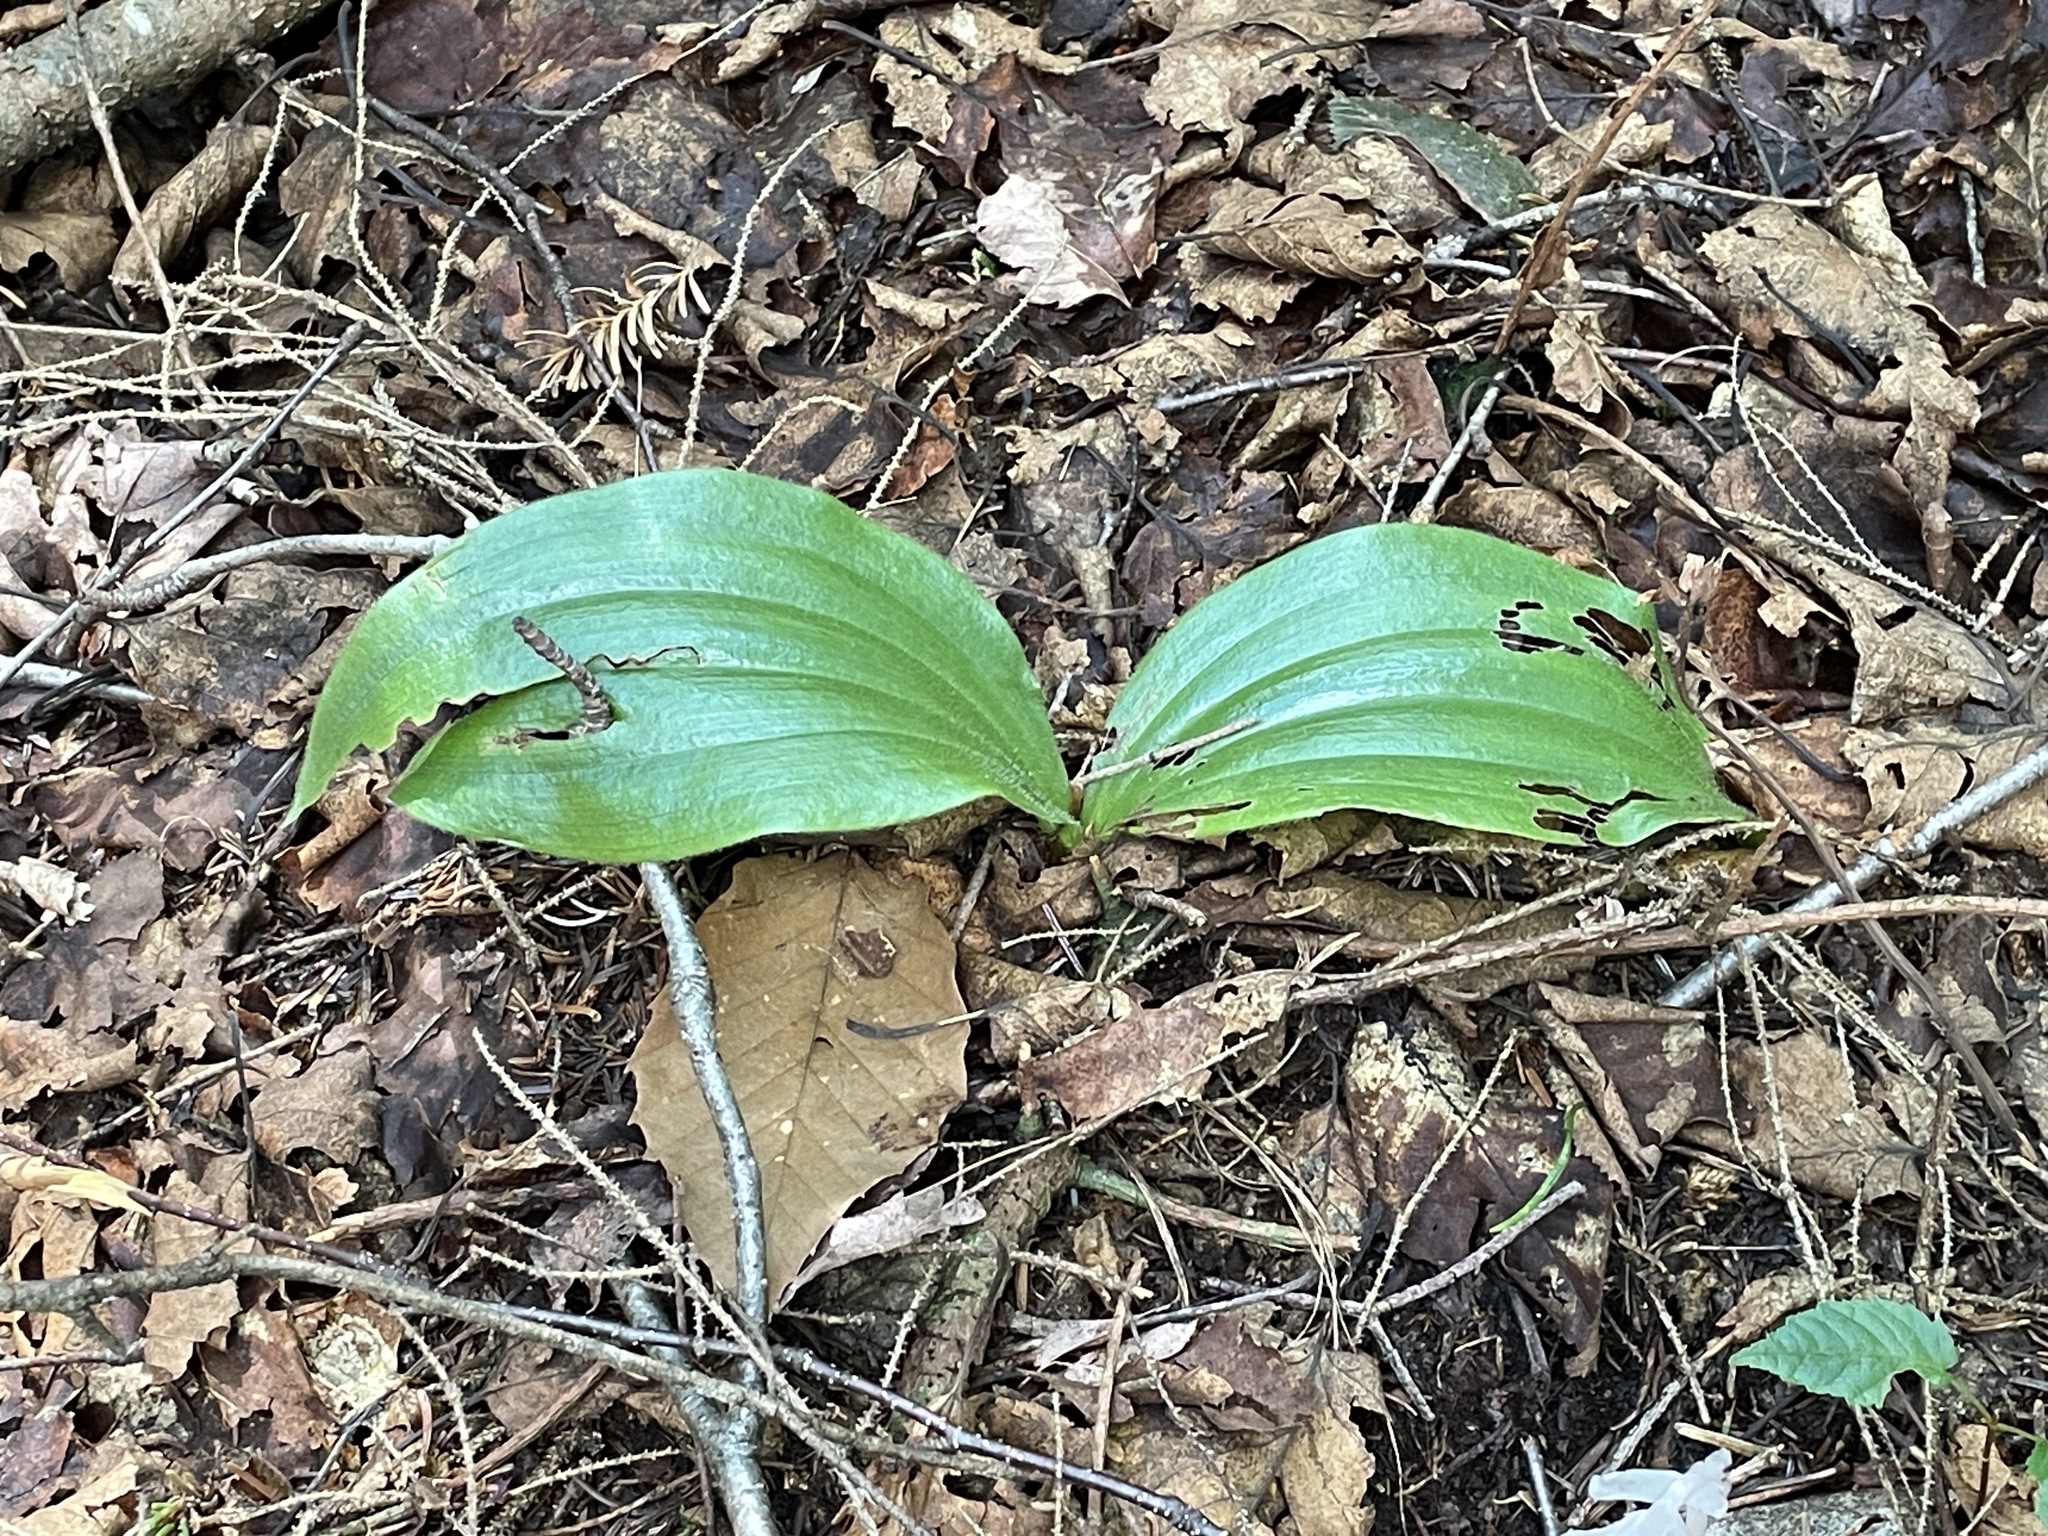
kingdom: Plantae
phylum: Tracheophyta
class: Liliopsida
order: Asparagales
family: Orchidaceae
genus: Cypripedium
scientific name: Cypripedium acaule
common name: Pink lady's-slipper
